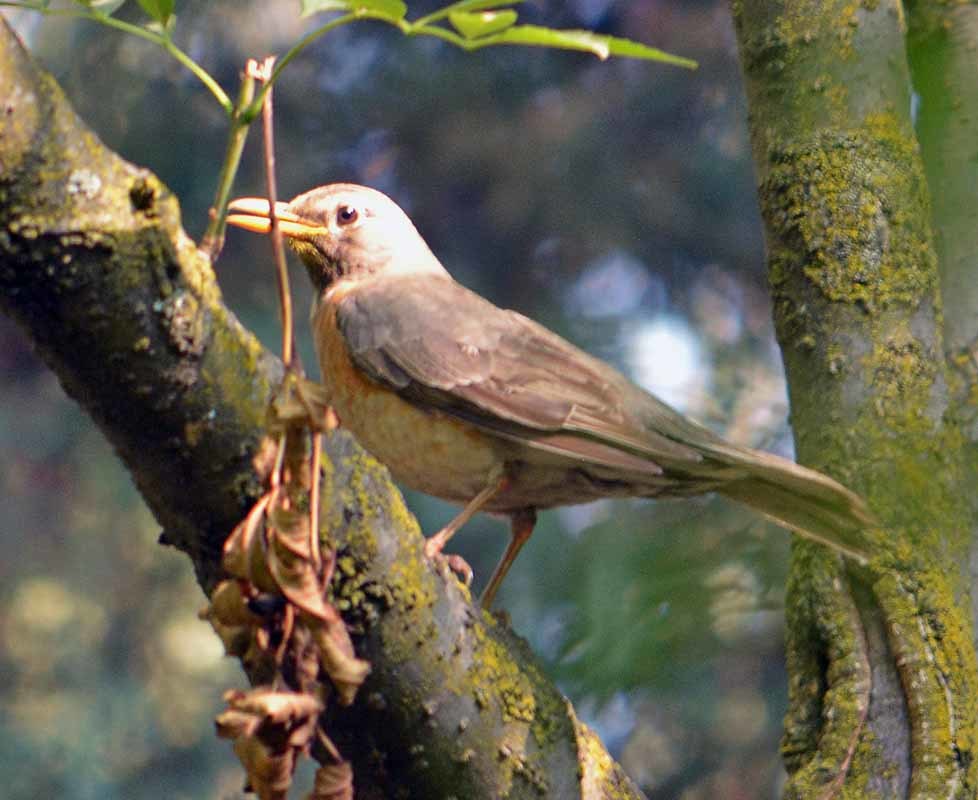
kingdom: Animalia
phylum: Chordata
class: Aves
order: Passeriformes
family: Turdidae
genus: Turdus
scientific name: Turdus rufopalliatus
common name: Rufous-backed robin
